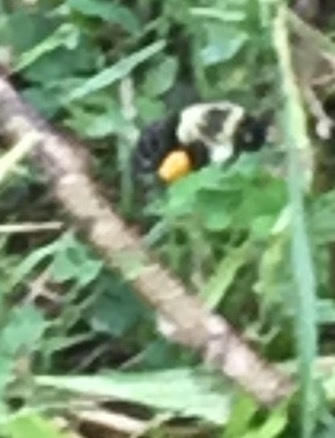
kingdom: Animalia
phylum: Arthropoda
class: Insecta
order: Hymenoptera
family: Apidae
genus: Bombus
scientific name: Bombus impatiens
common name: Common eastern bumble bee
